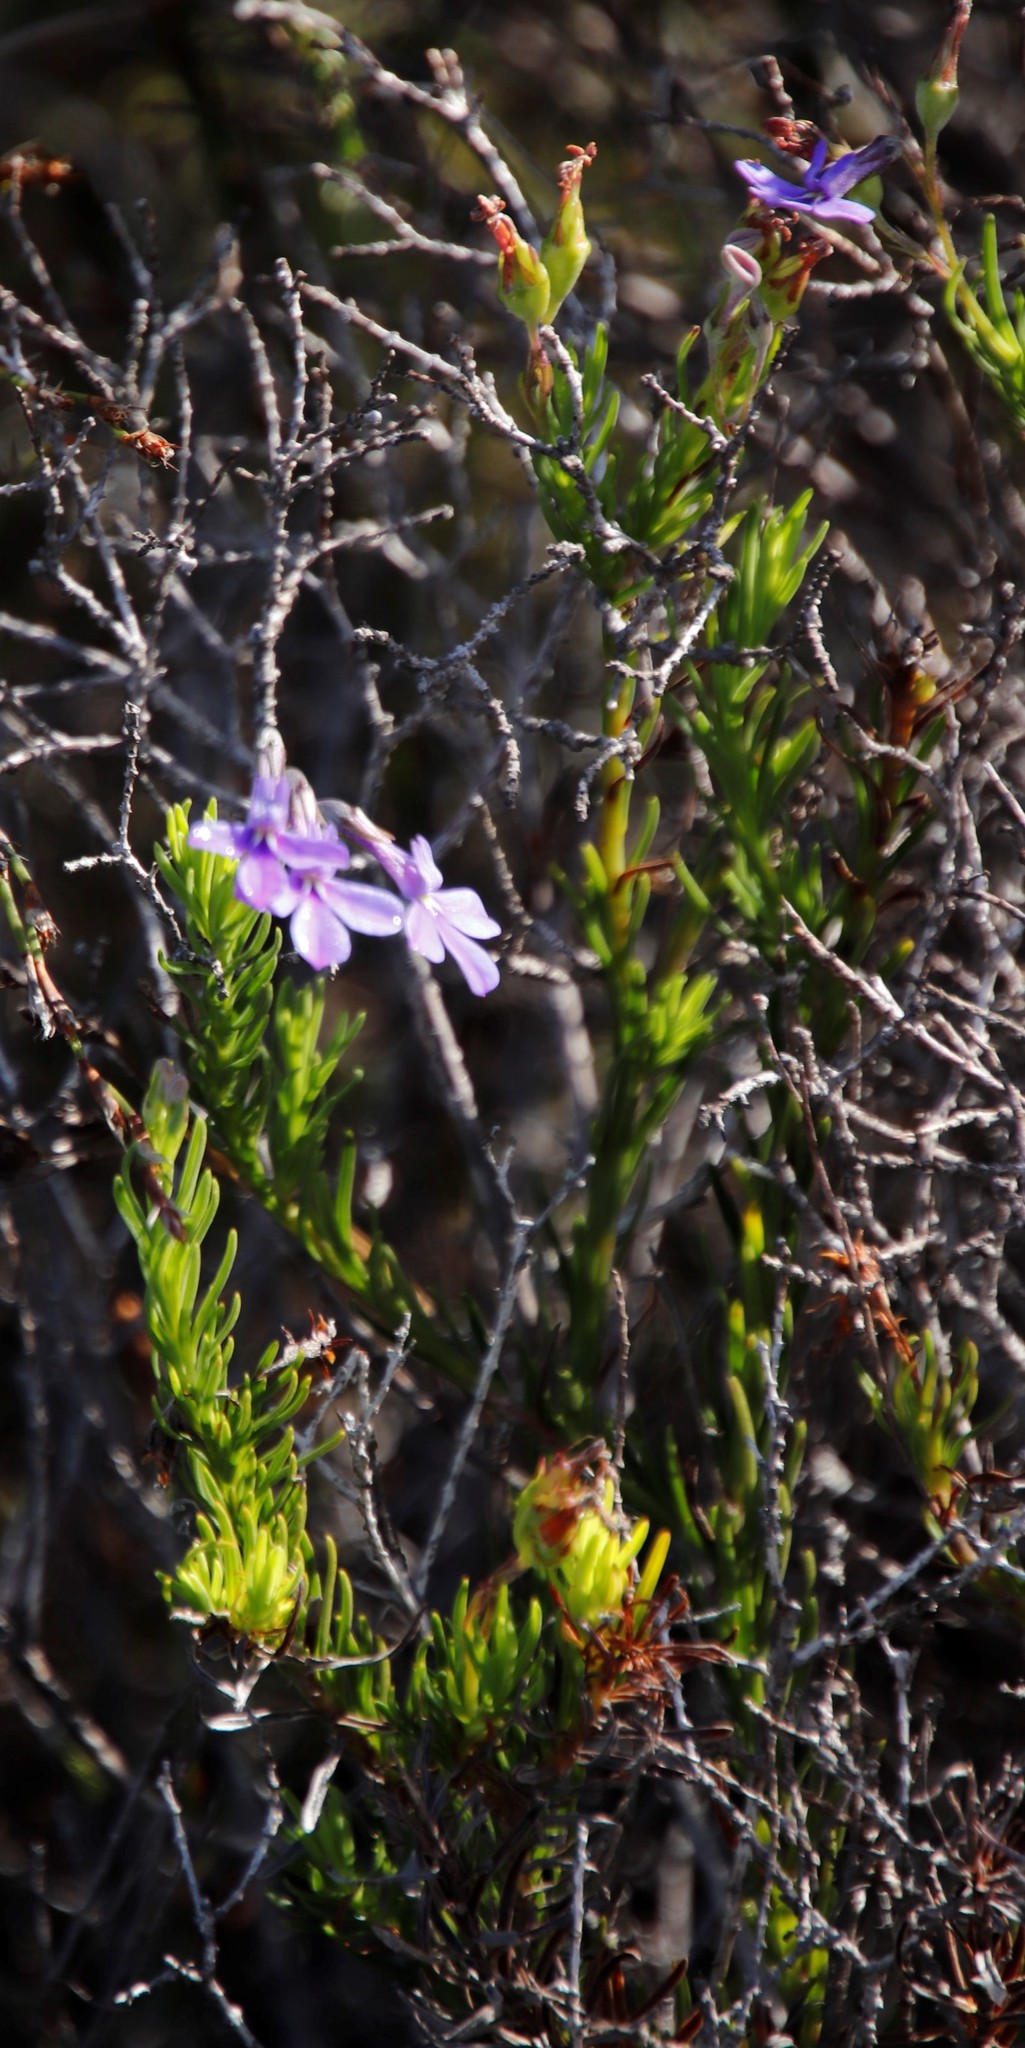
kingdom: Plantae
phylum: Tracheophyta
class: Magnoliopsida
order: Asterales
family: Campanulaceae
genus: Lobelia
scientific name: Lobelia pinifolia
